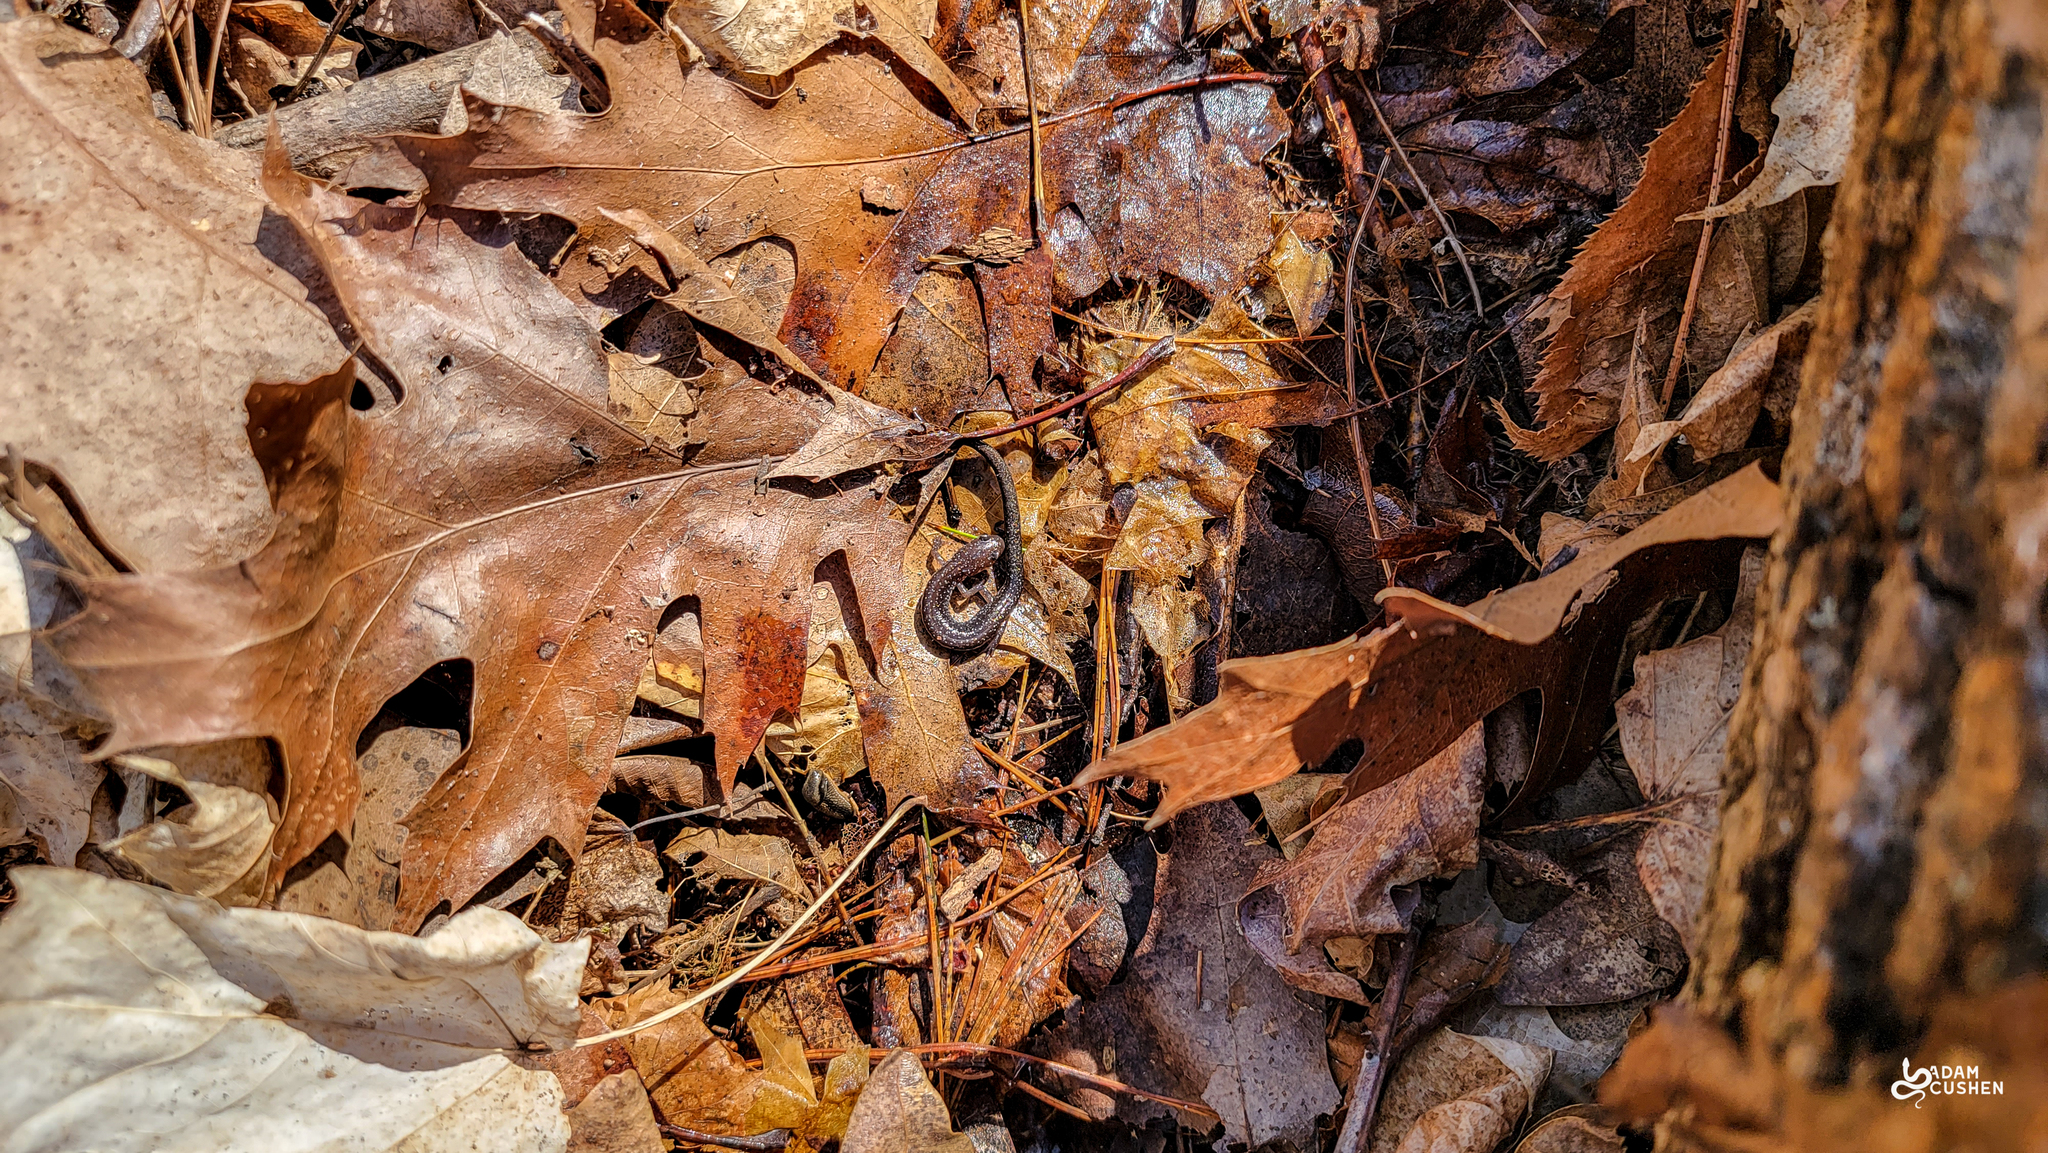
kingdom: Animalia
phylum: Chordata
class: Amphibia
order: Caudata
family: Plethodontidae
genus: Plethodon
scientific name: Plethodon cinereus
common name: Redback salamander
